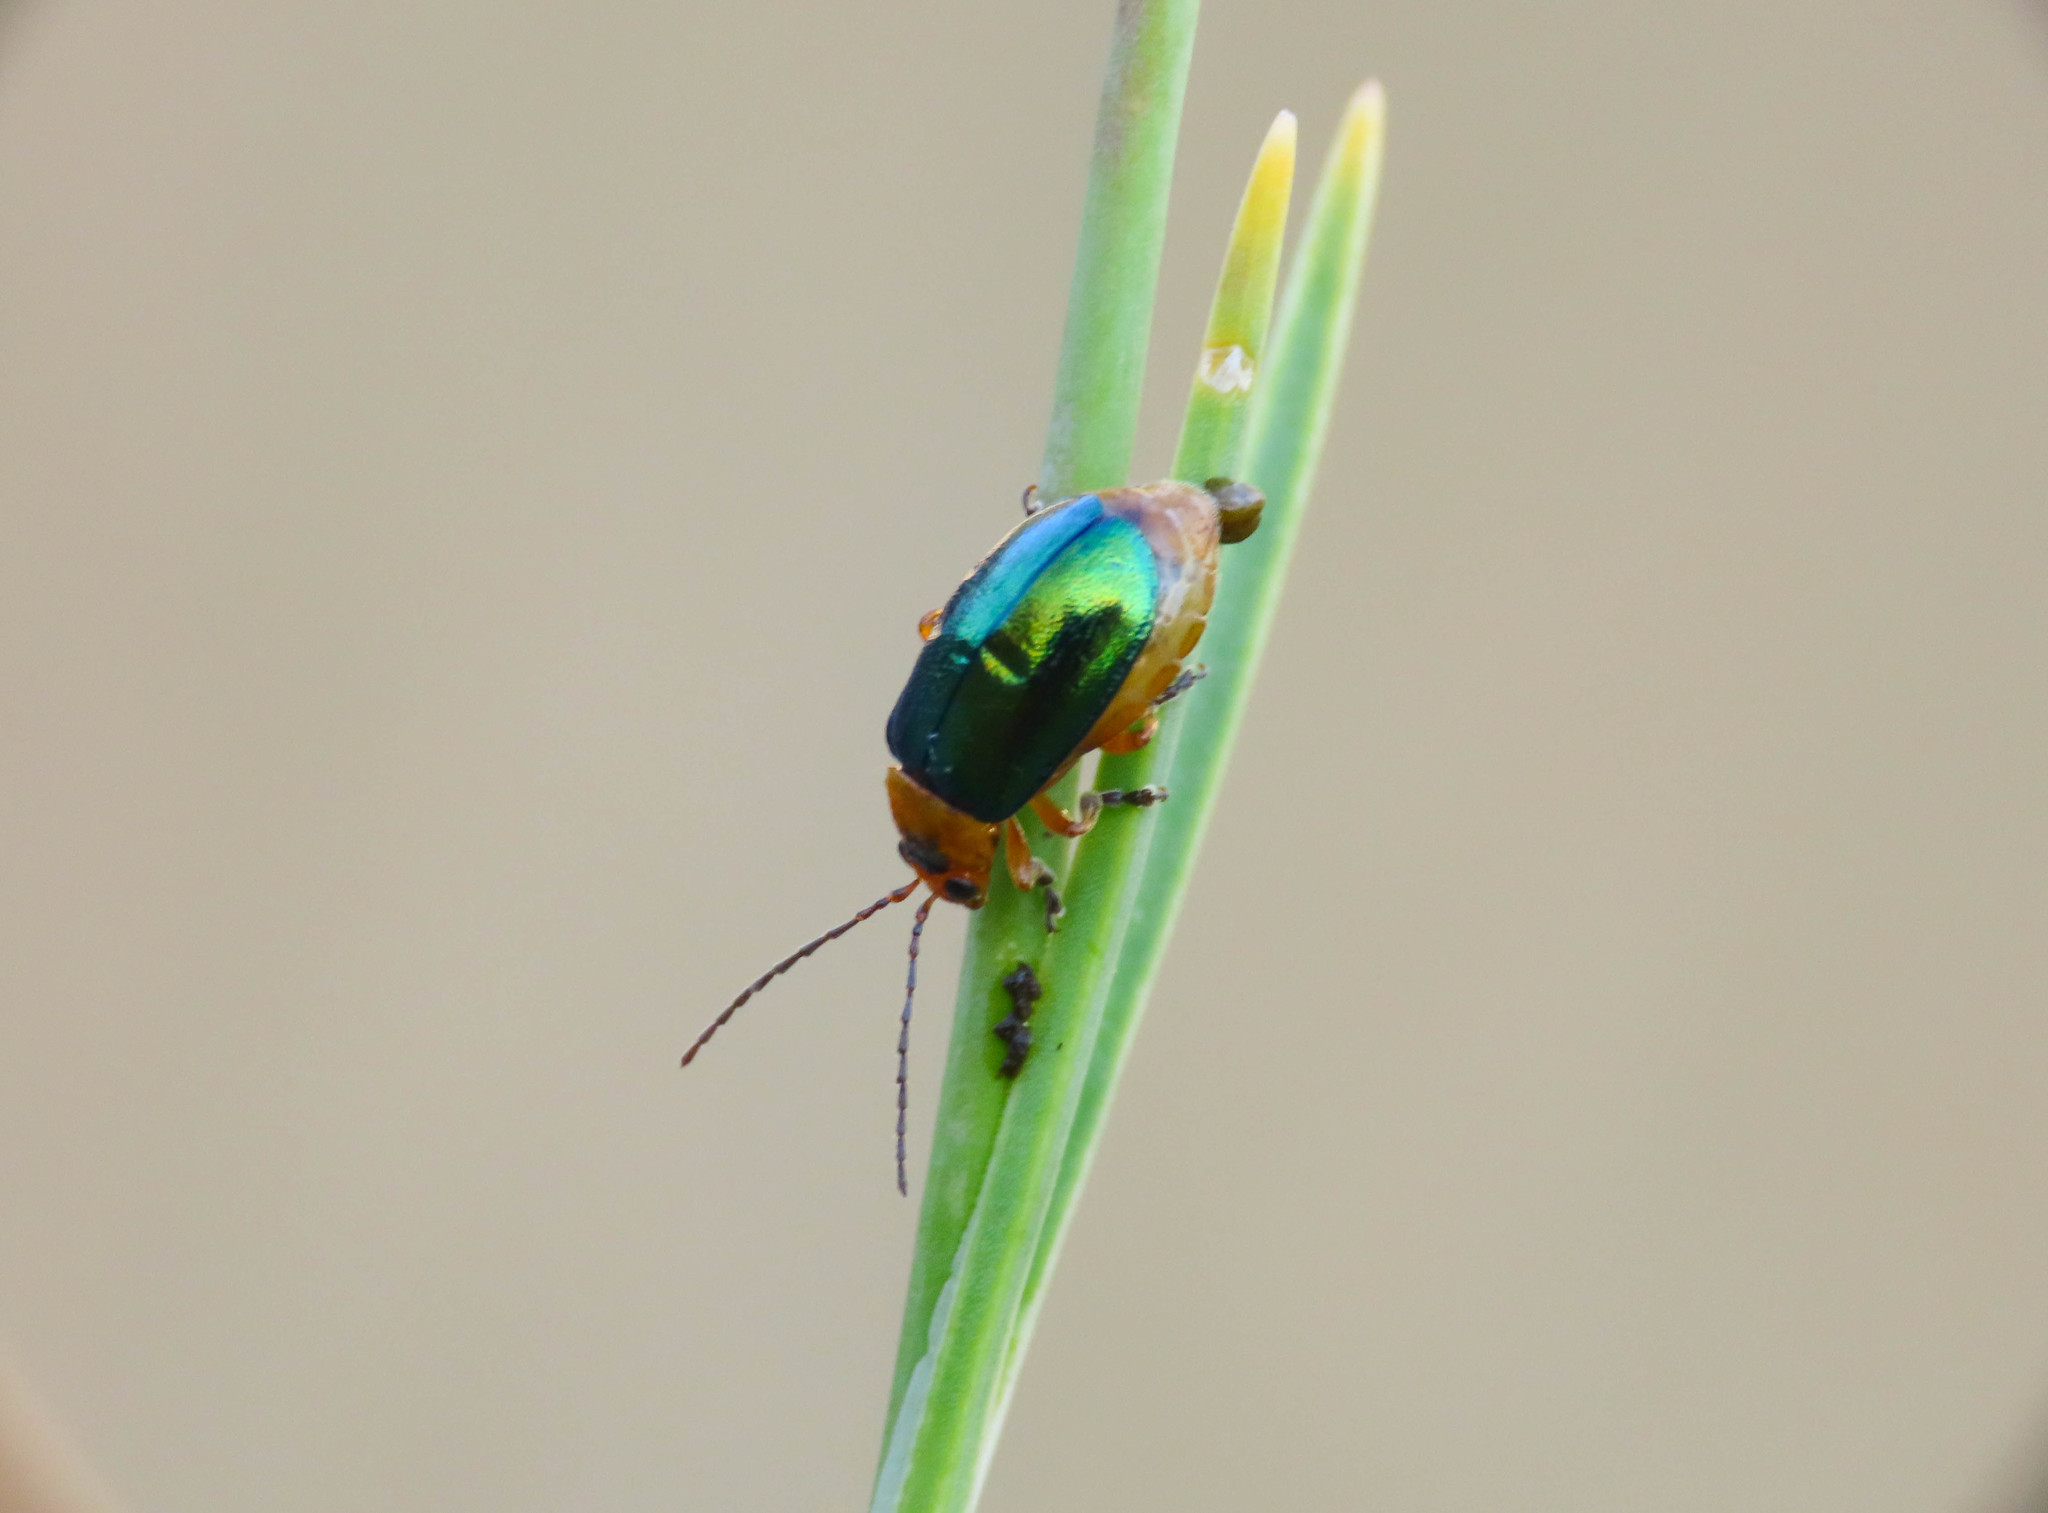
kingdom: Animalia
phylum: Arthropoda
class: Insecta
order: Coleoptera
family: Chrysomelidae
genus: Sermylassa
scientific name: Sermylassa halensis
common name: Leaf beetle
